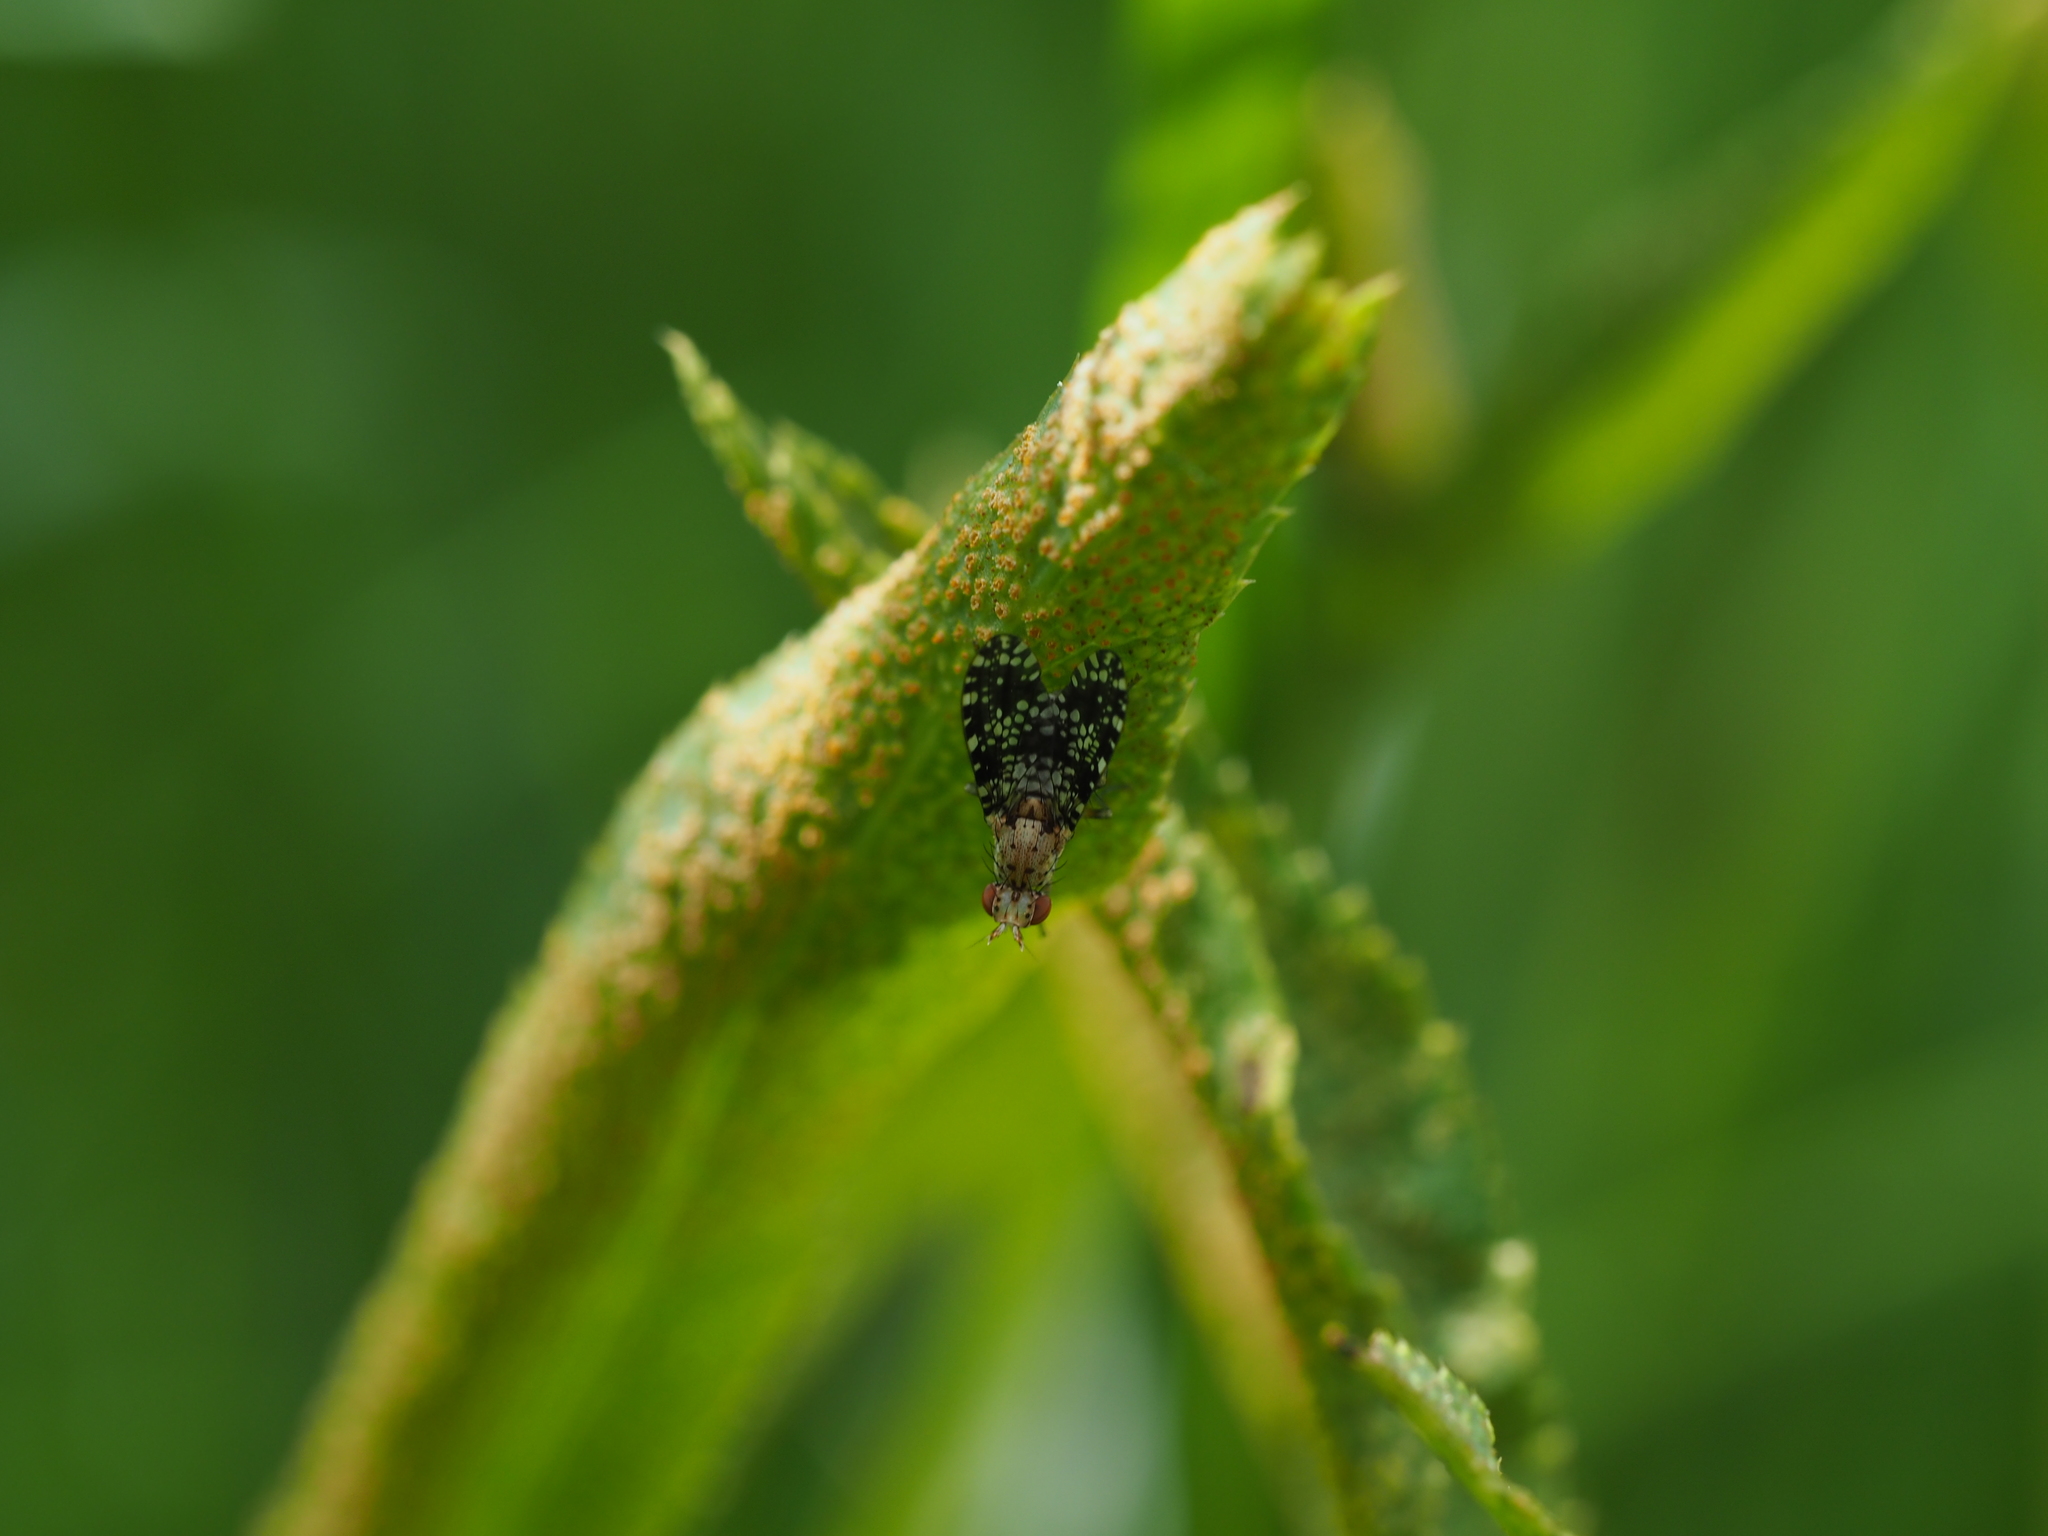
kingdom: Animalia
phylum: Arthropoda
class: Insecta
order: Diptera
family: Sciomyzidae
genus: Trypetoptera
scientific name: Trypetoptera punctulata
